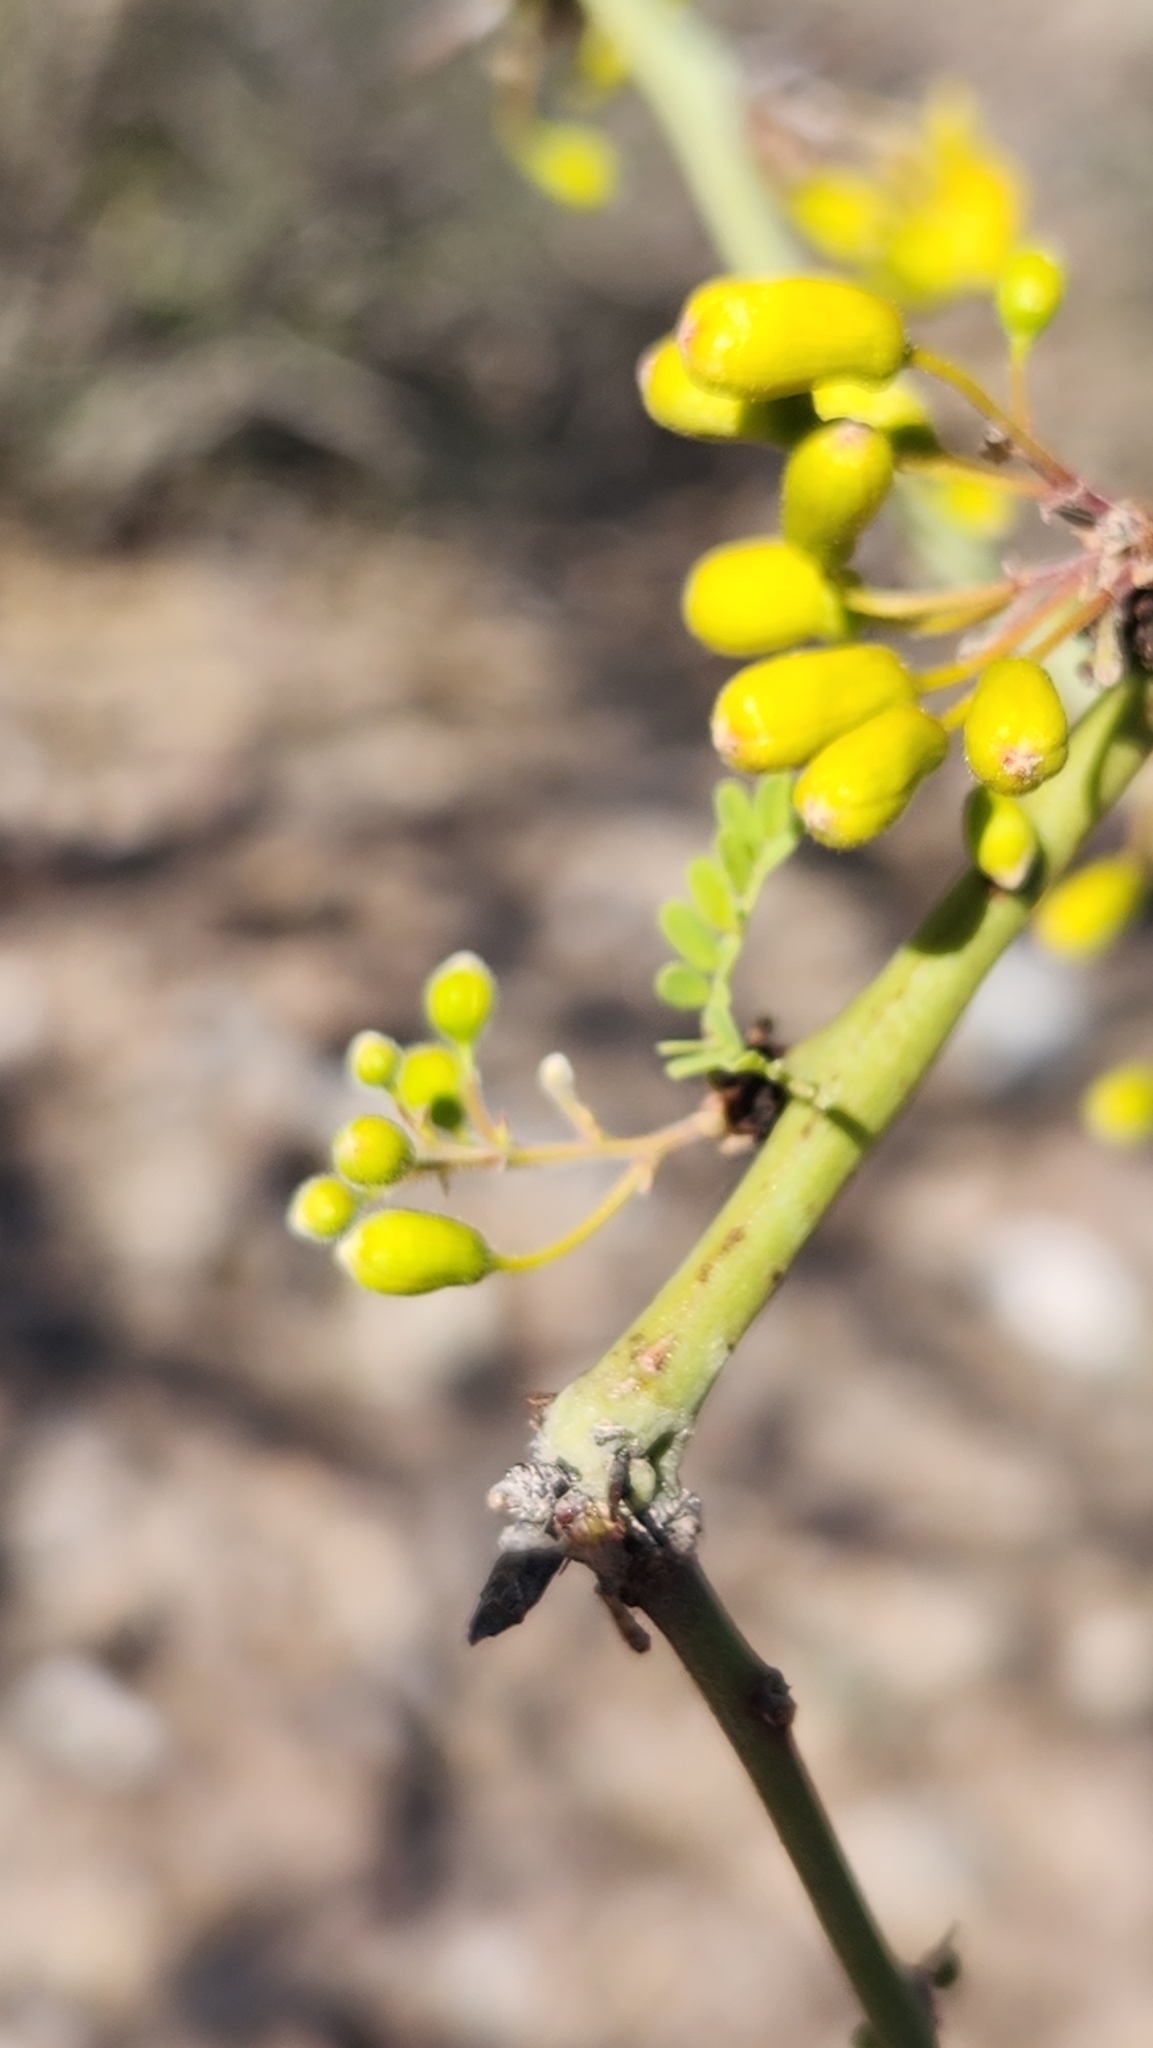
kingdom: Plantae
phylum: Tracheophyta
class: Magnoliopsida
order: Fabales
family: Fabaceae
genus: Parkinsonia
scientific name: Parkinsonia praecox
